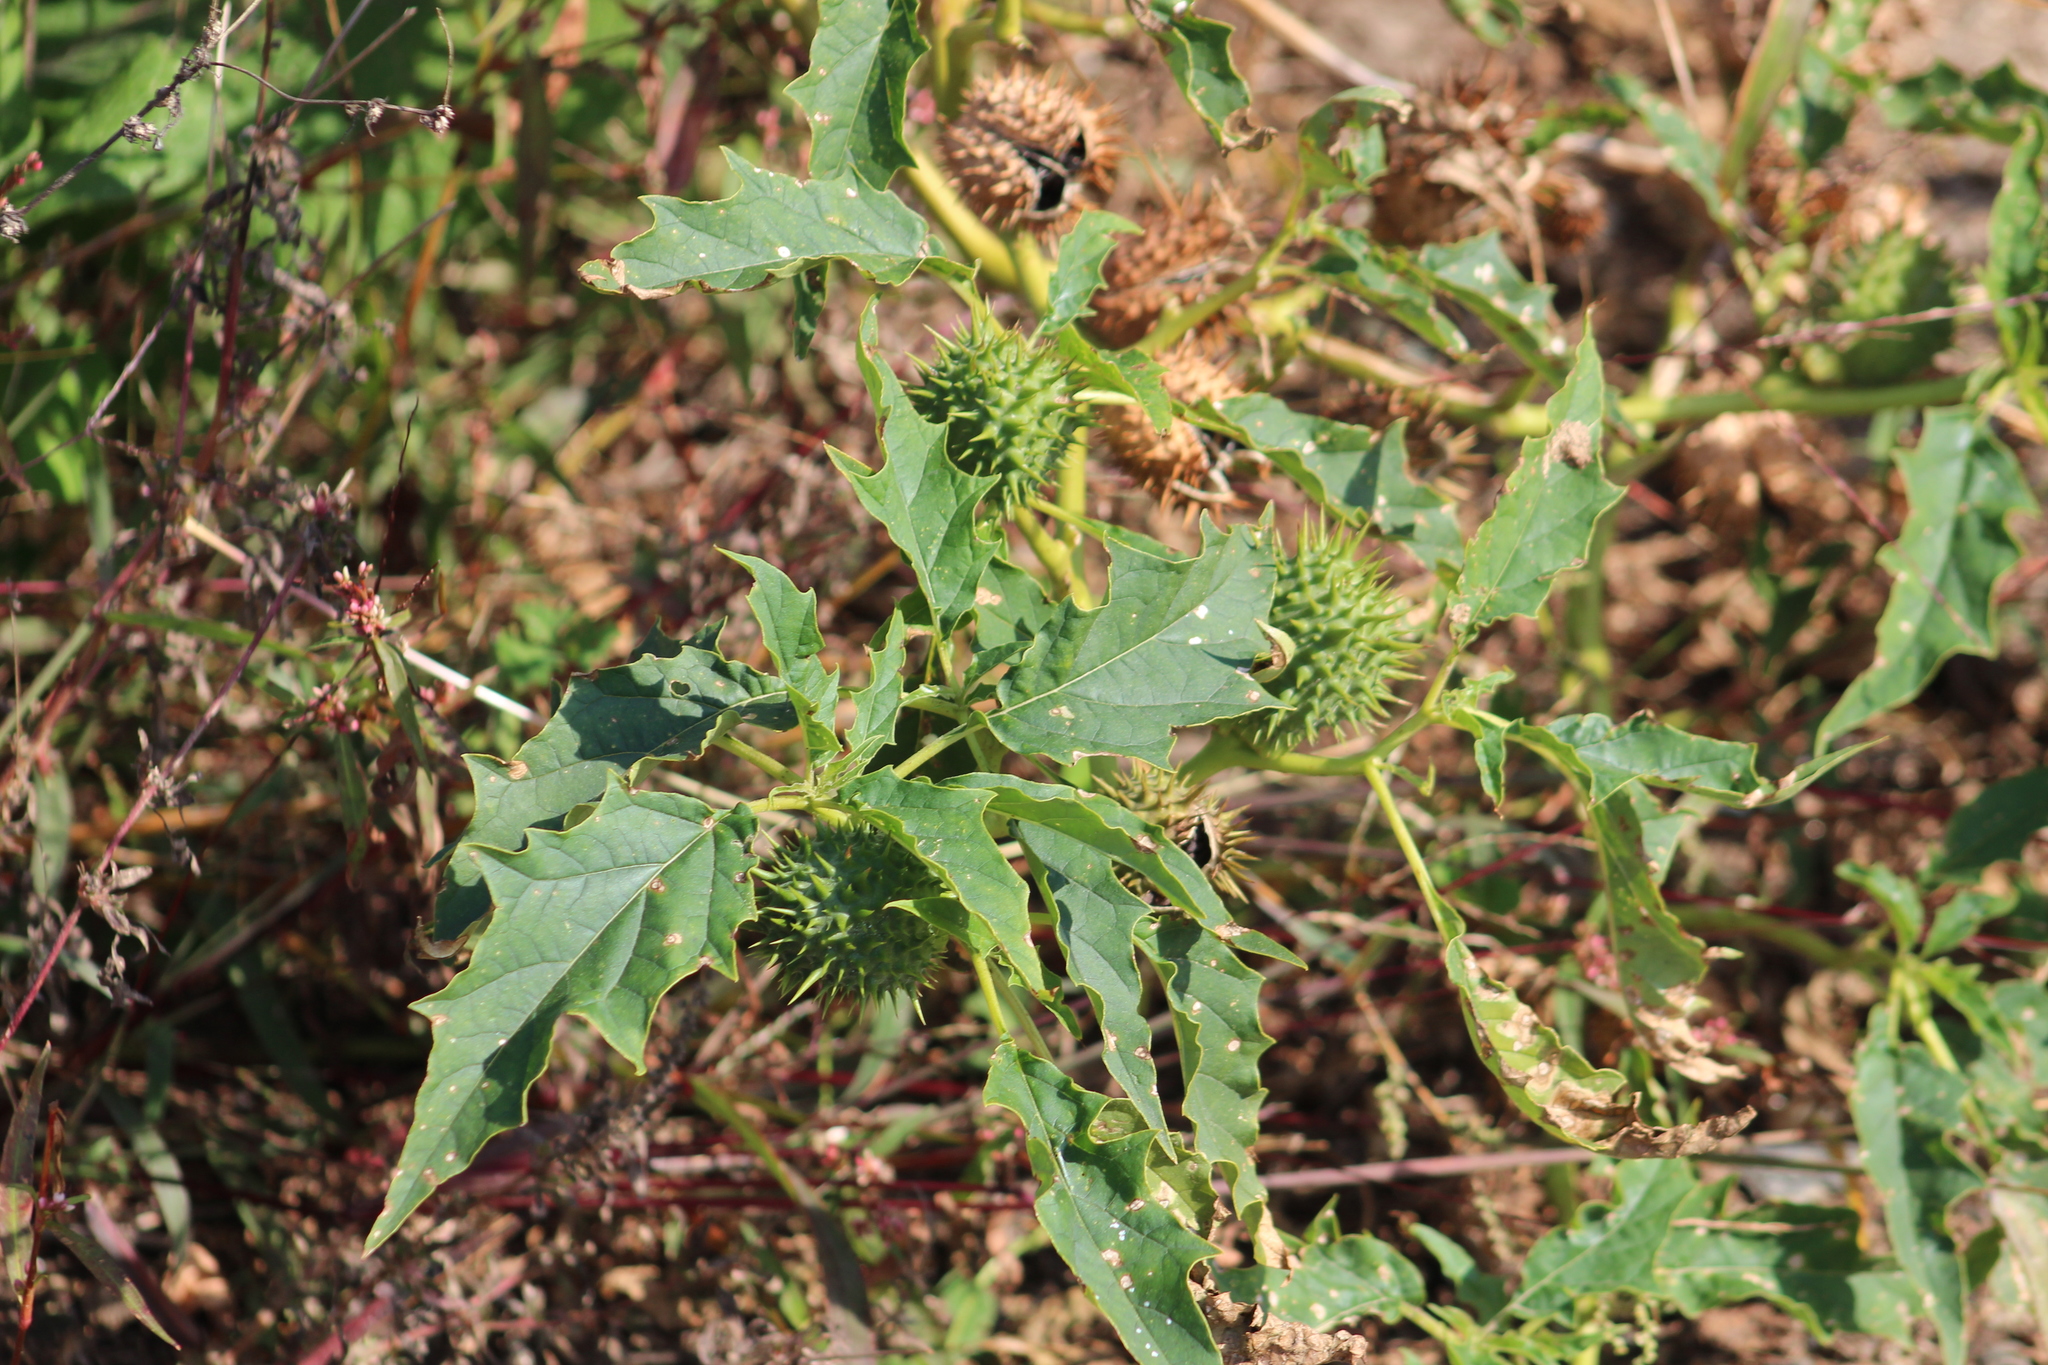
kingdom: Plantae
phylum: Tracheophyta
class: Magnoliopsida
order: Solanales
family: Solanaceae
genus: Datura
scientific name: Datura stramonium
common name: Thorn-apple
